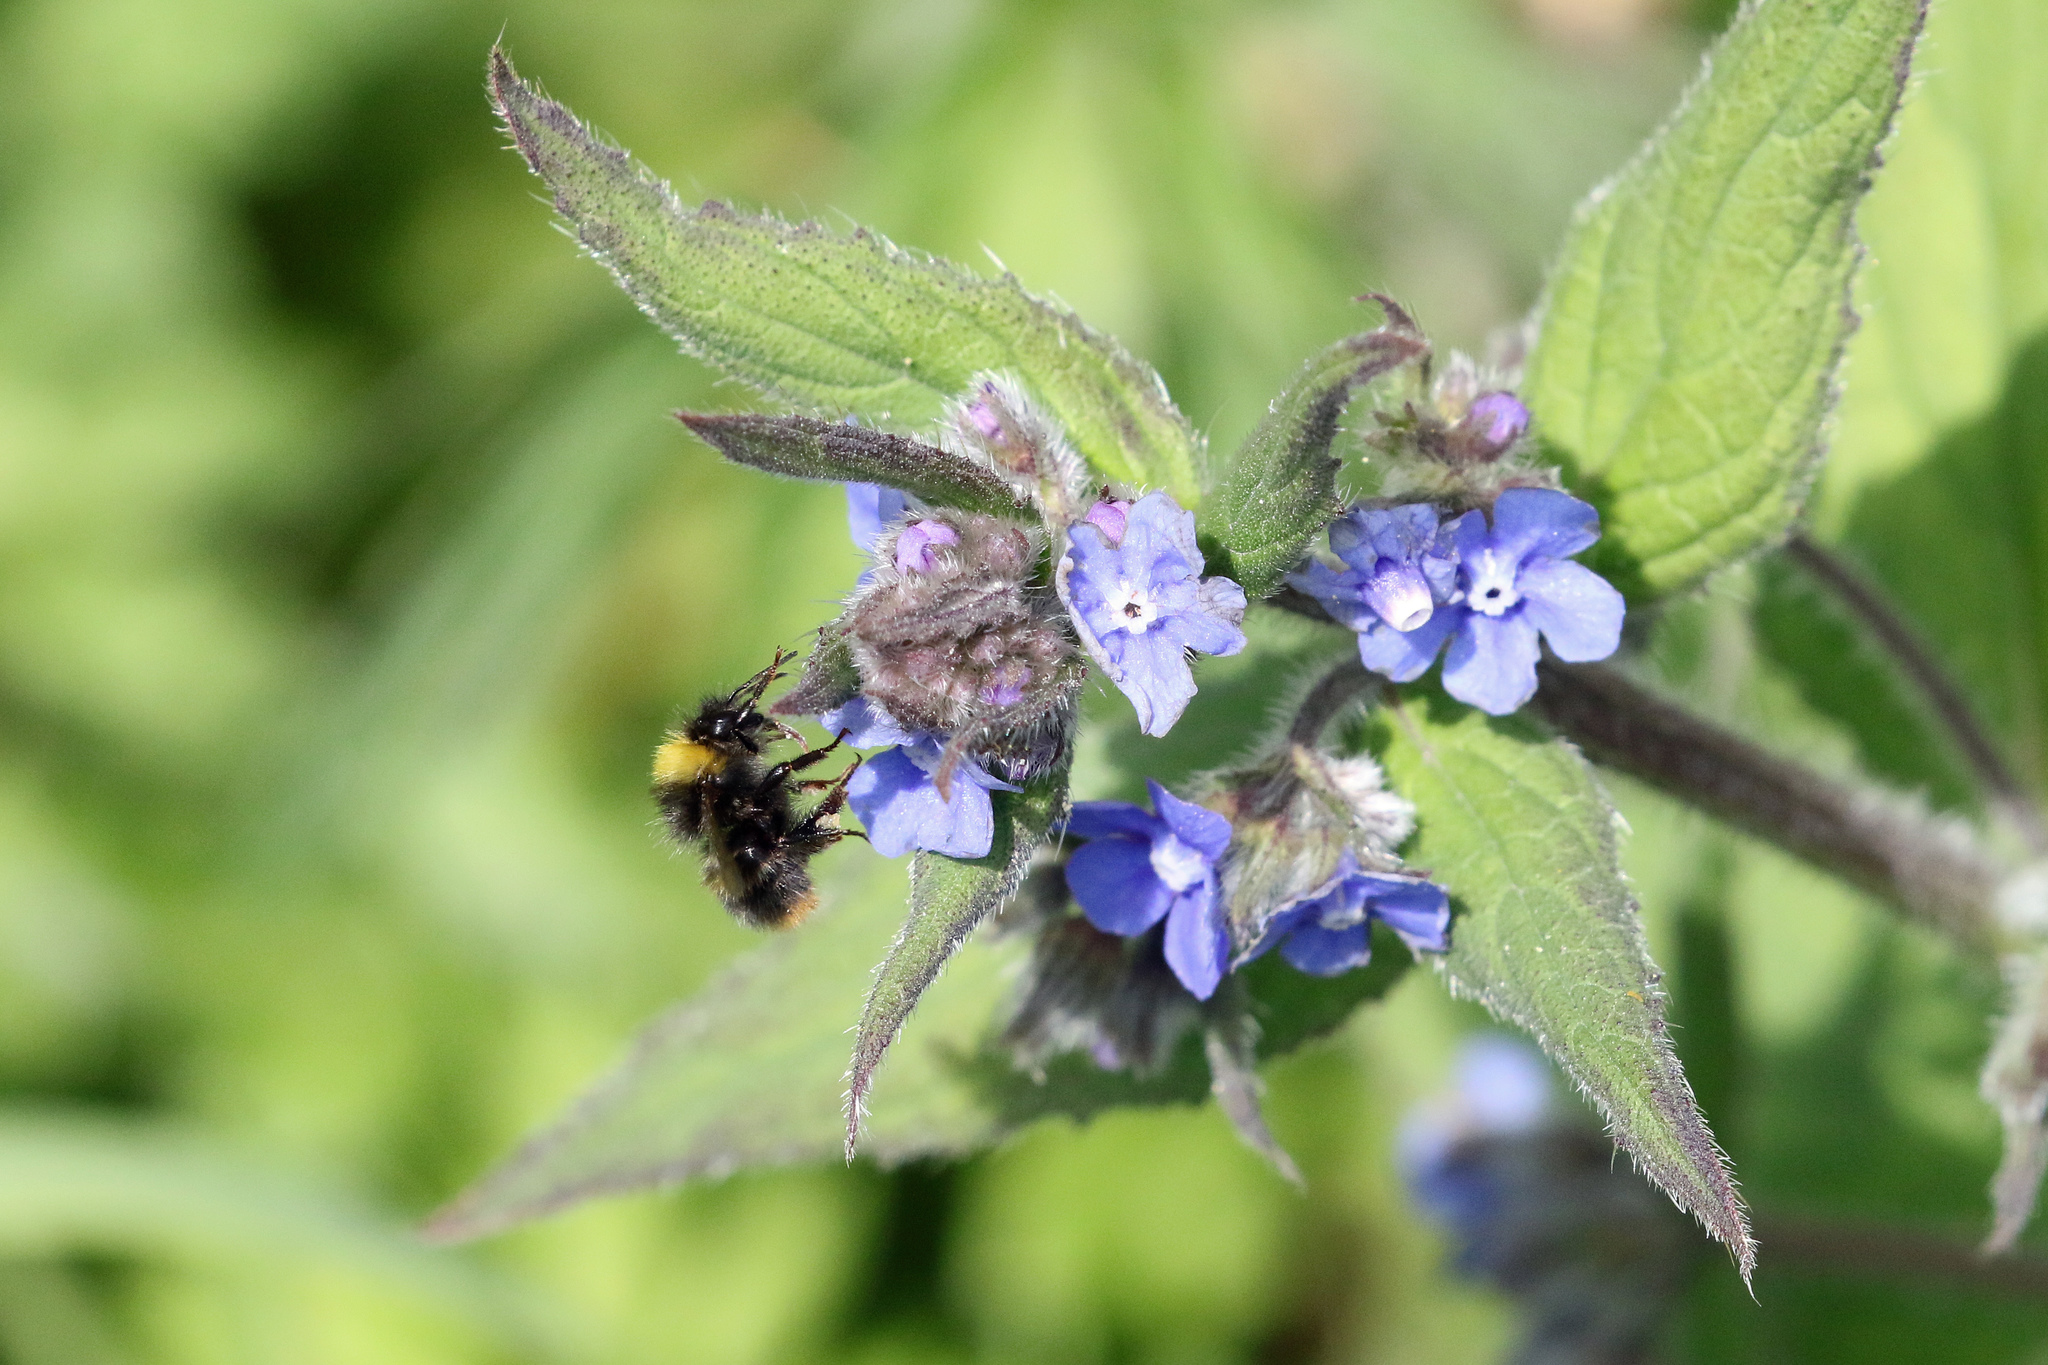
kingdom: Animalia
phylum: Arthropoda
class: Insecta
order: Hymenoptera
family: Apidae
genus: Bombus
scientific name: Bombus pratorum
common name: Early humble-bee
